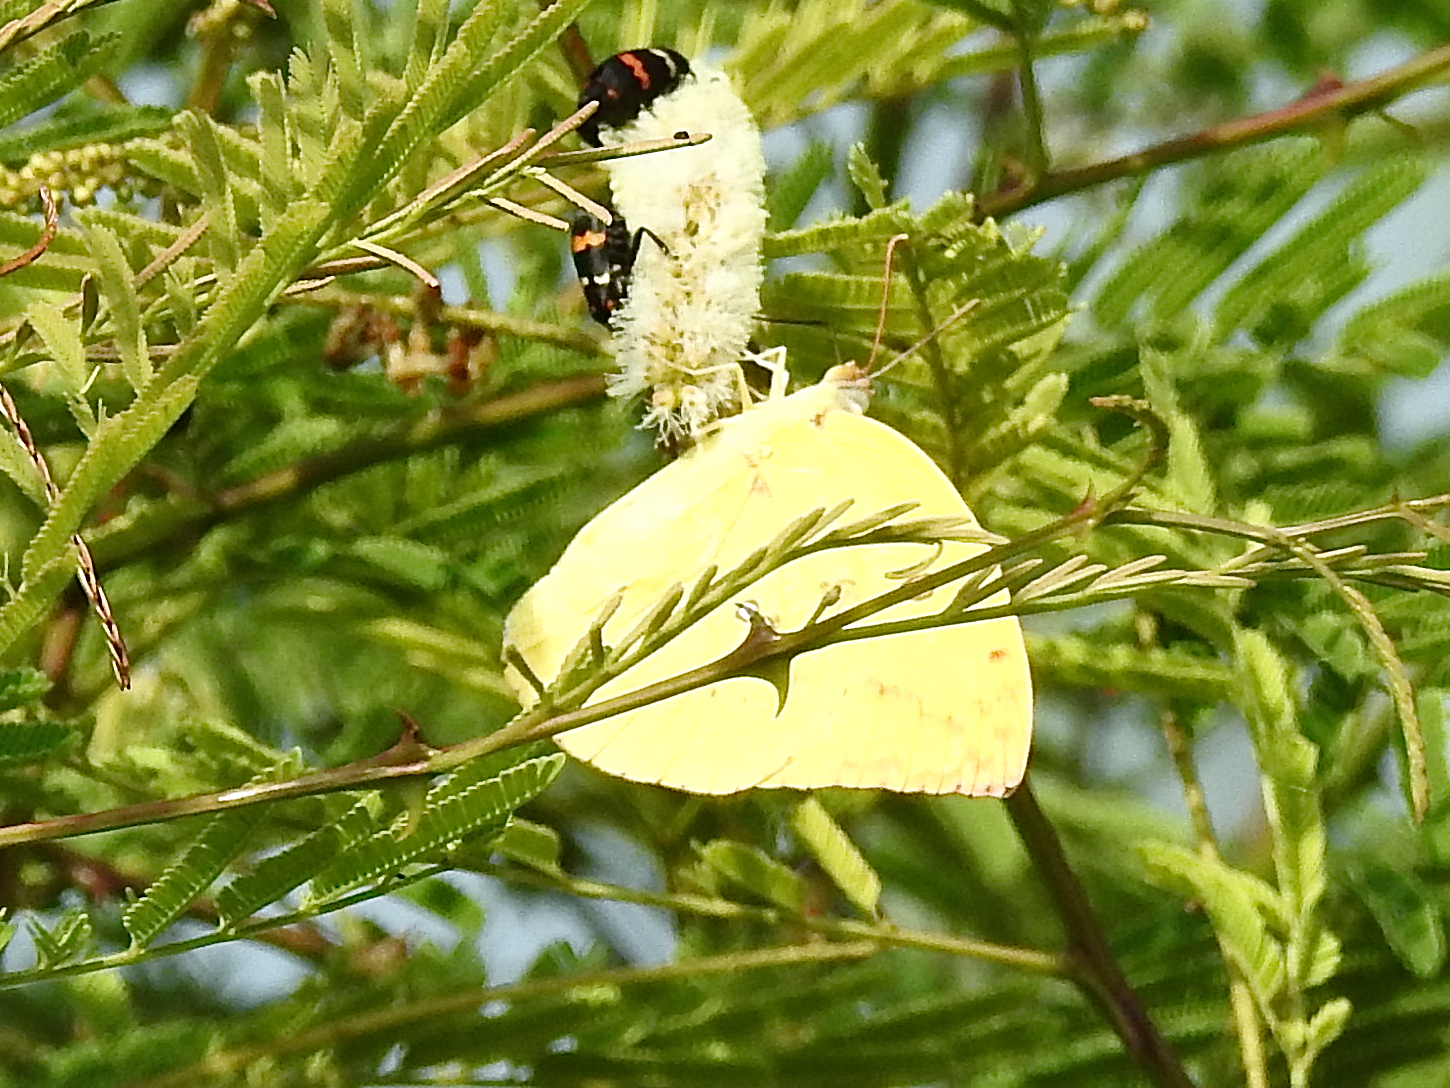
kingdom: Animalia
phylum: Arthropoda
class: Insecta
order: Lepidoptera
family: Pieridae
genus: Catopsilia
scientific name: Catopsilia pomona
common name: Common emigrant
